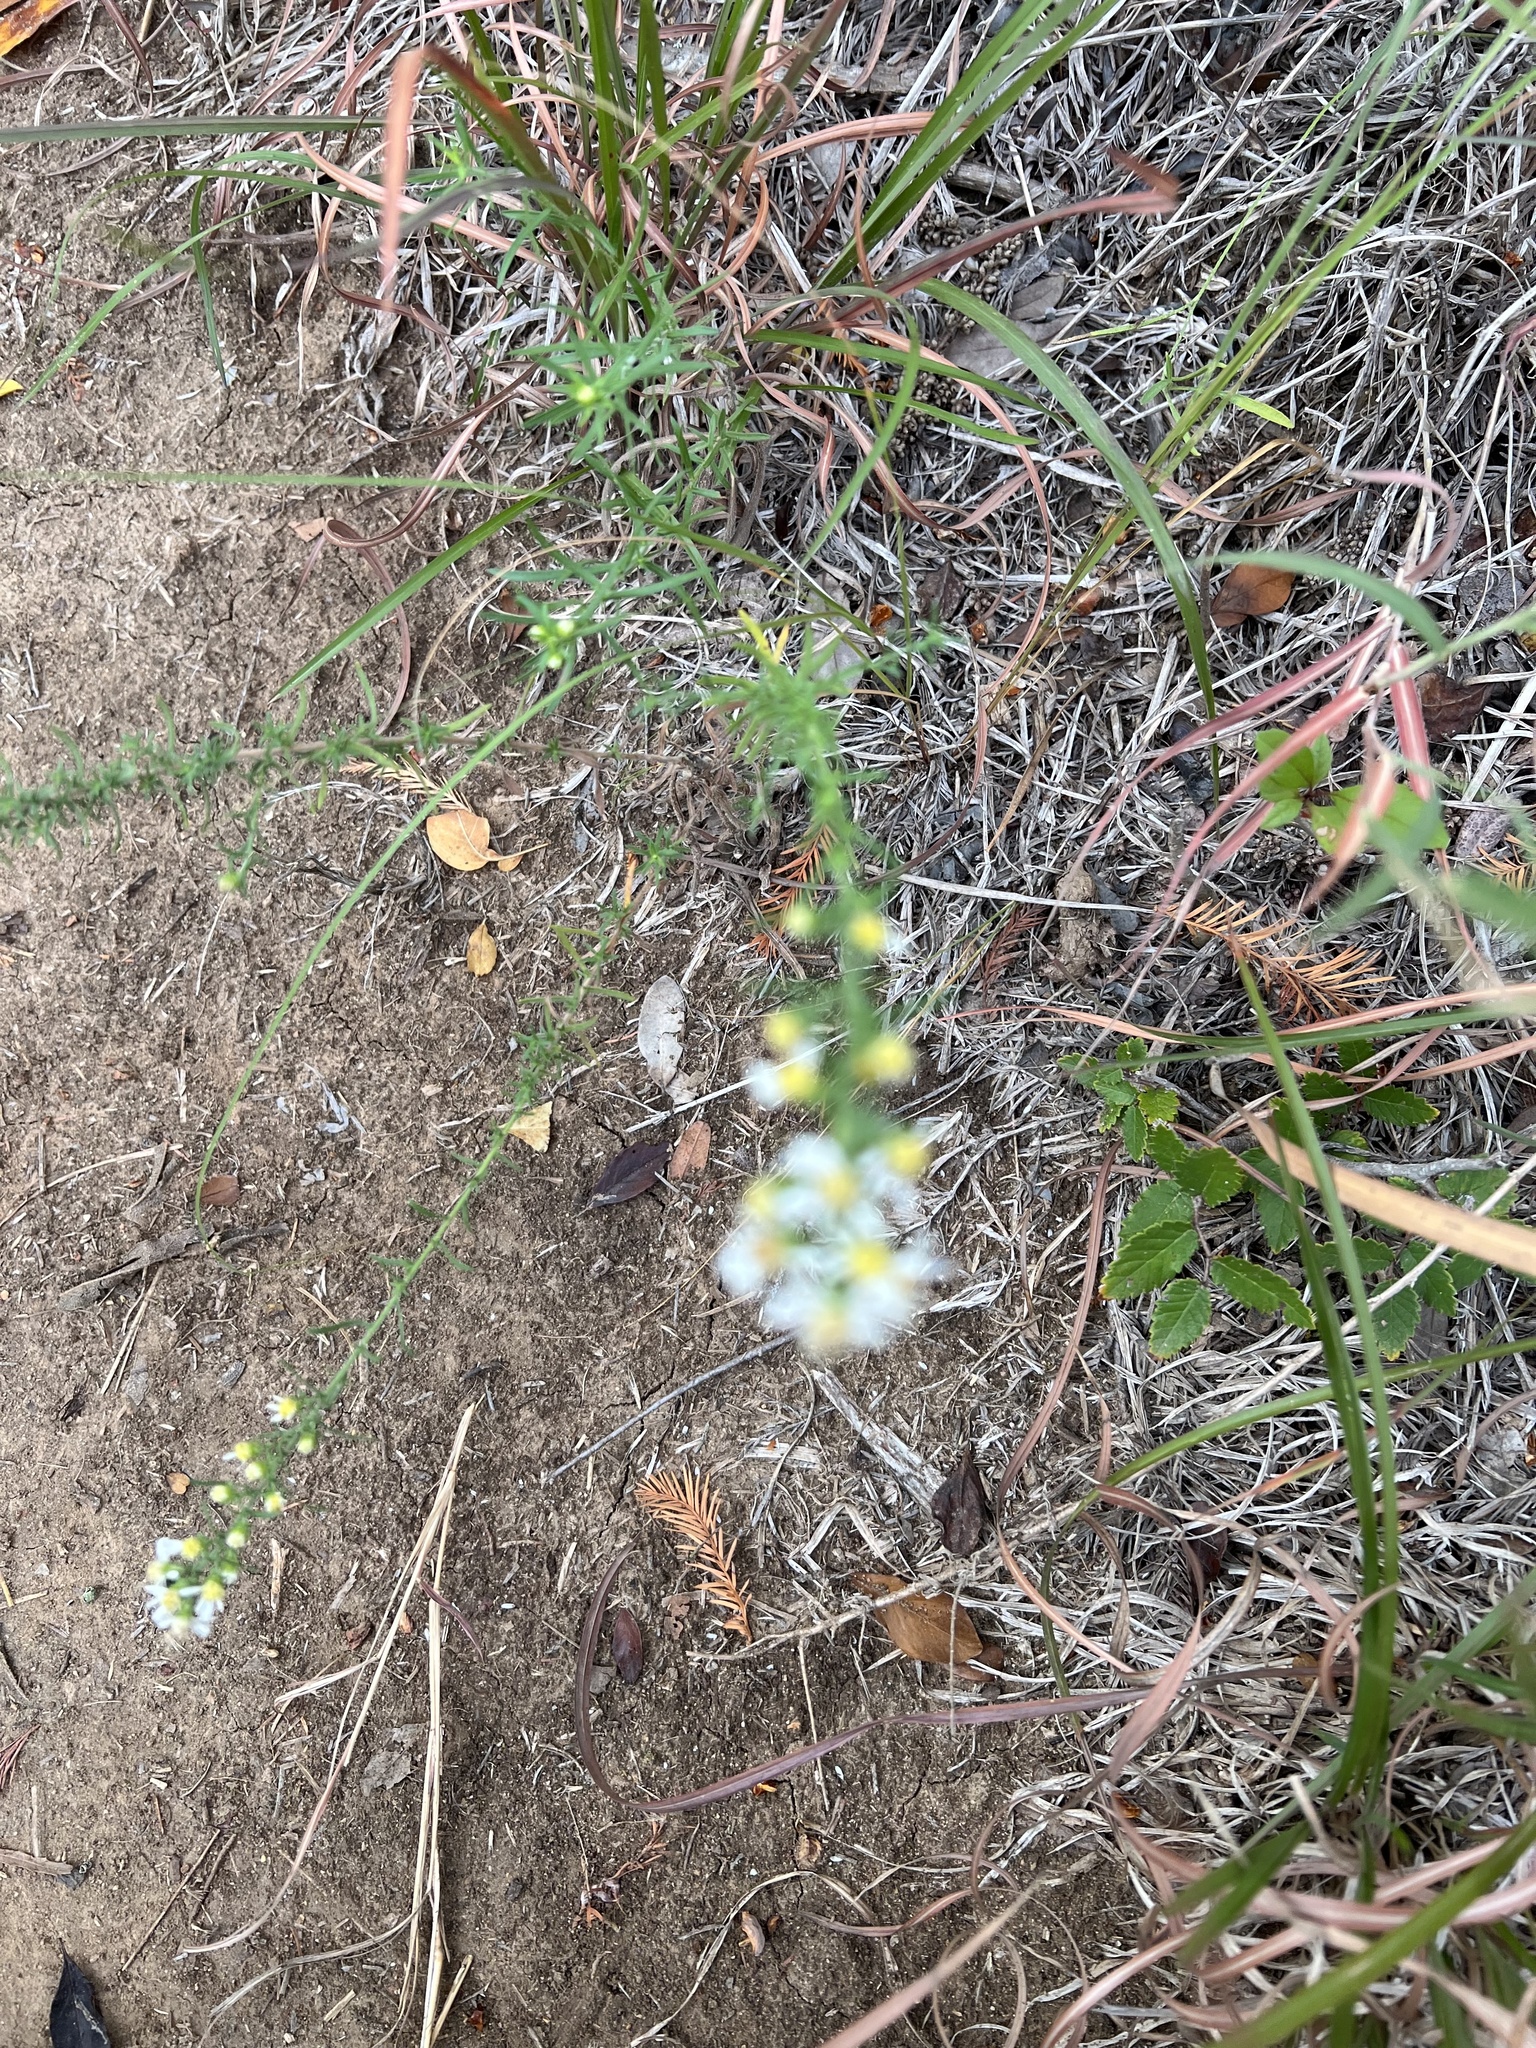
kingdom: Plantae
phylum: Tracheophyta
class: Magnoliopsida
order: Asterales
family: Asteraceae
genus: Symphyotrichum
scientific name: Symphyotrichum ericoides
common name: Heath aster
